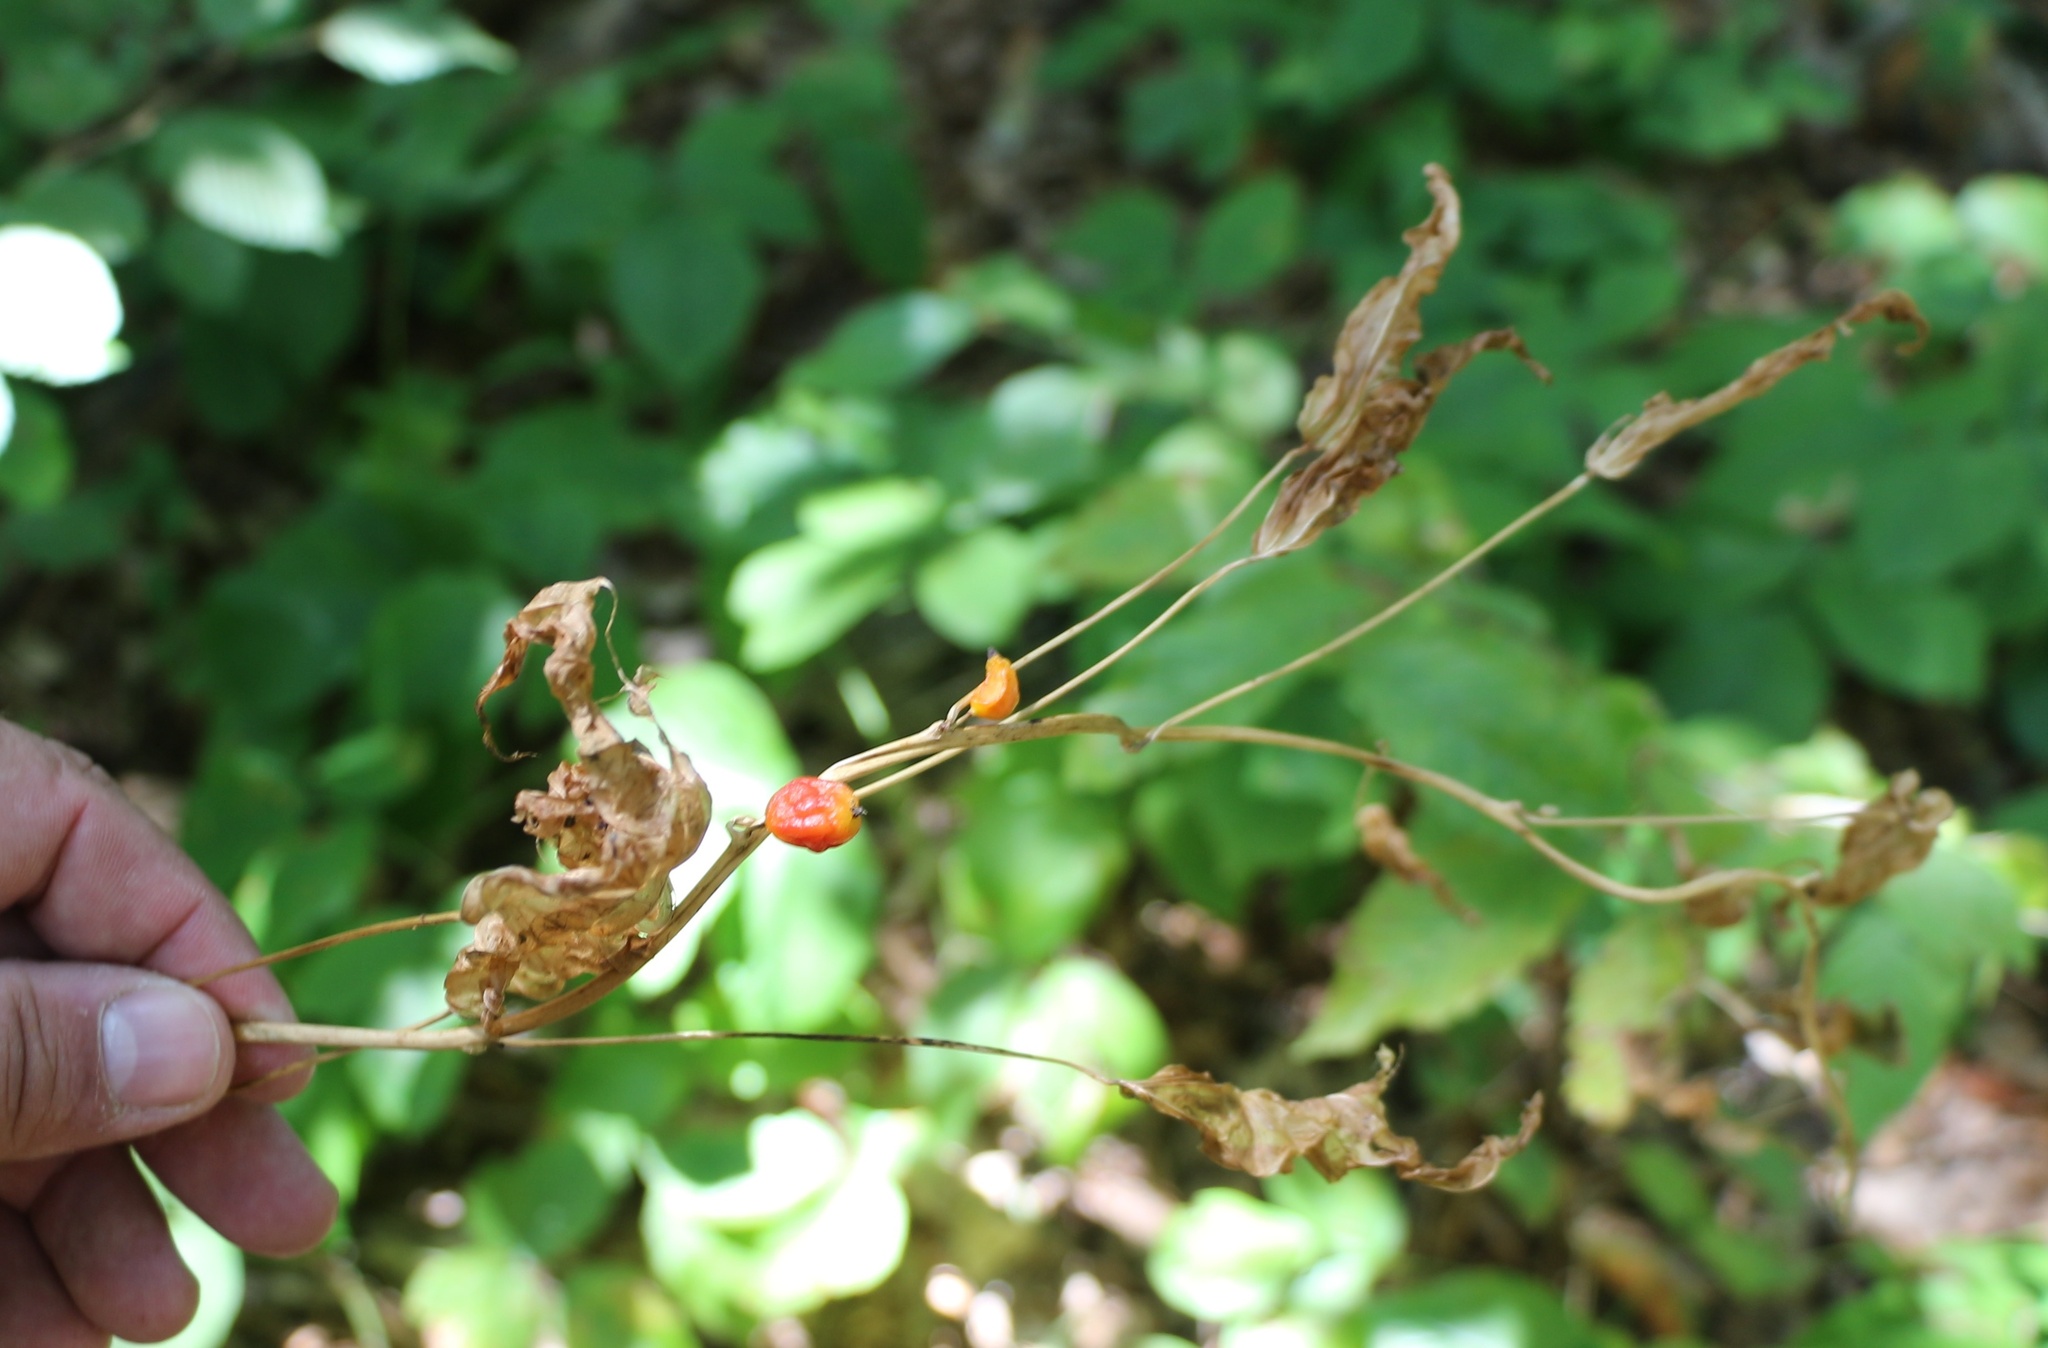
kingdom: Plantae
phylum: Tracheophyta
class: Liliopsida
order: Dioscoreales
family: Dioscoreaceae
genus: Dioscorea
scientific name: Dioscorea communis
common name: Black-bindweed
